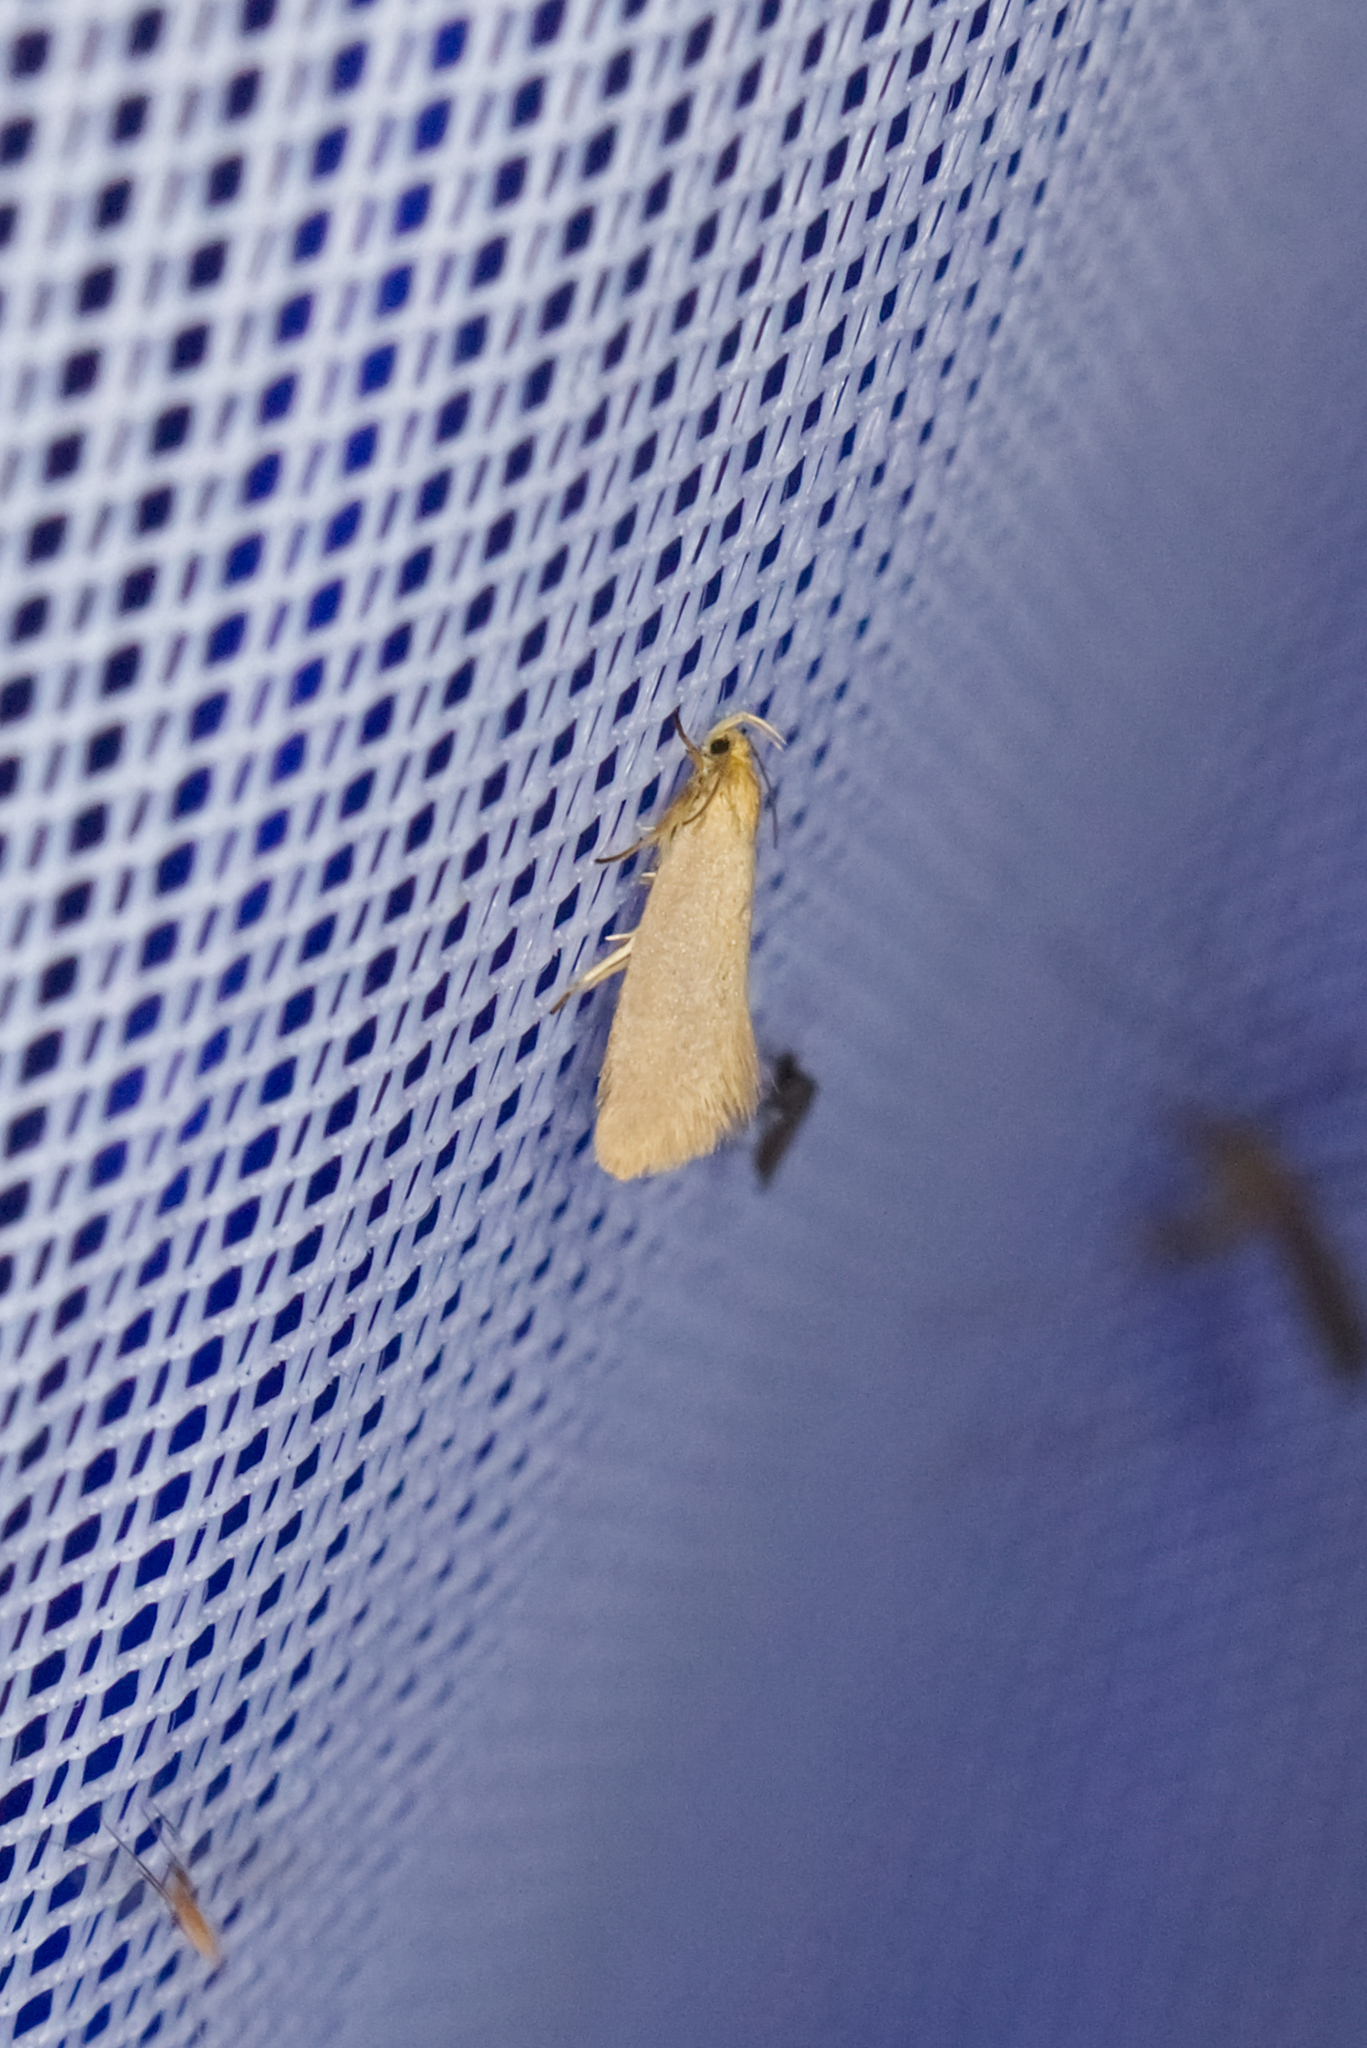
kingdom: Animalia
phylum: Arthropoda
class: Insecta
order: Lepidoptera
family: Oecophoridae
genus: Borkhausenia
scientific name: Borkhausenia Crassa tinctella
